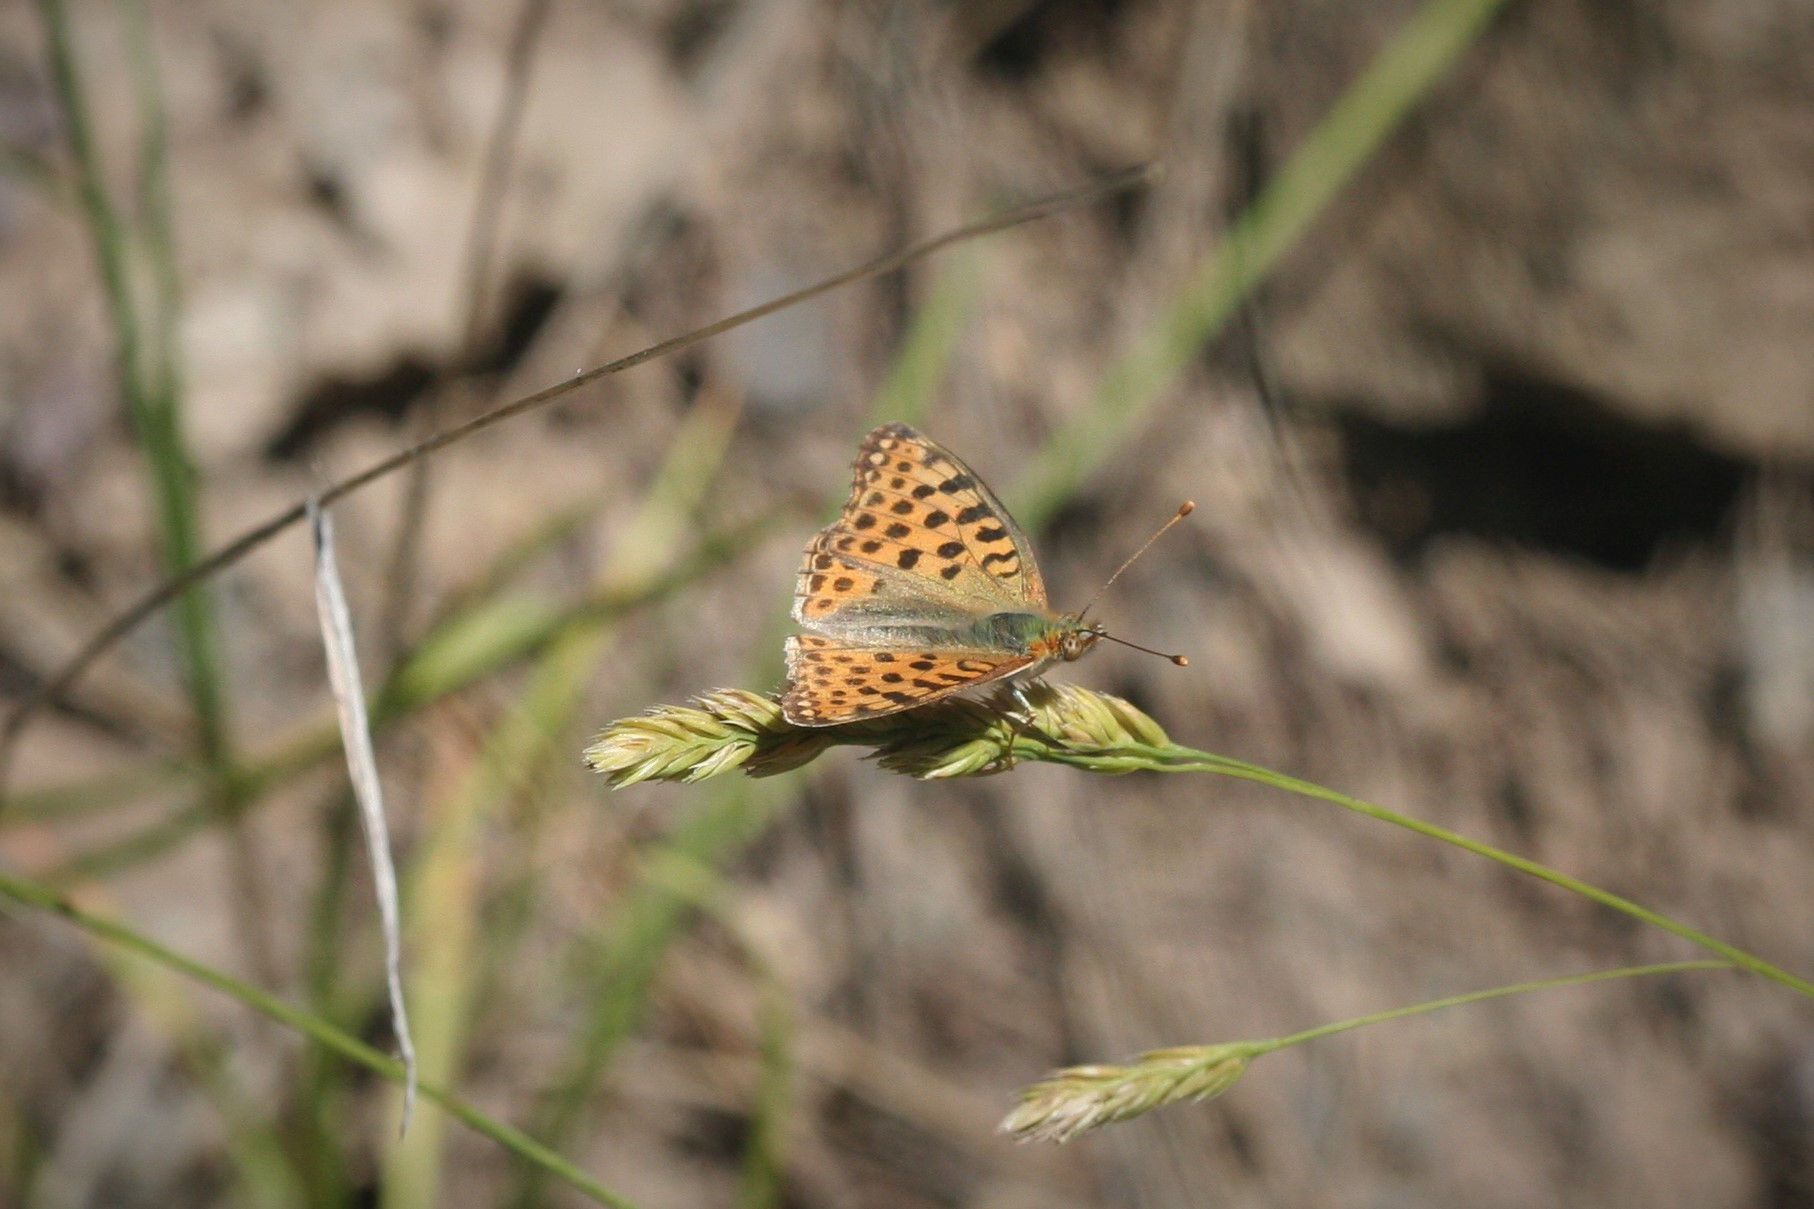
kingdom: Animalia
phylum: Arthropoda
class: Insecta
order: Lepidoptera
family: Nymphalidae
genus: Issoria
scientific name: Issoria lathonia
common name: Queen of spain fritillary
